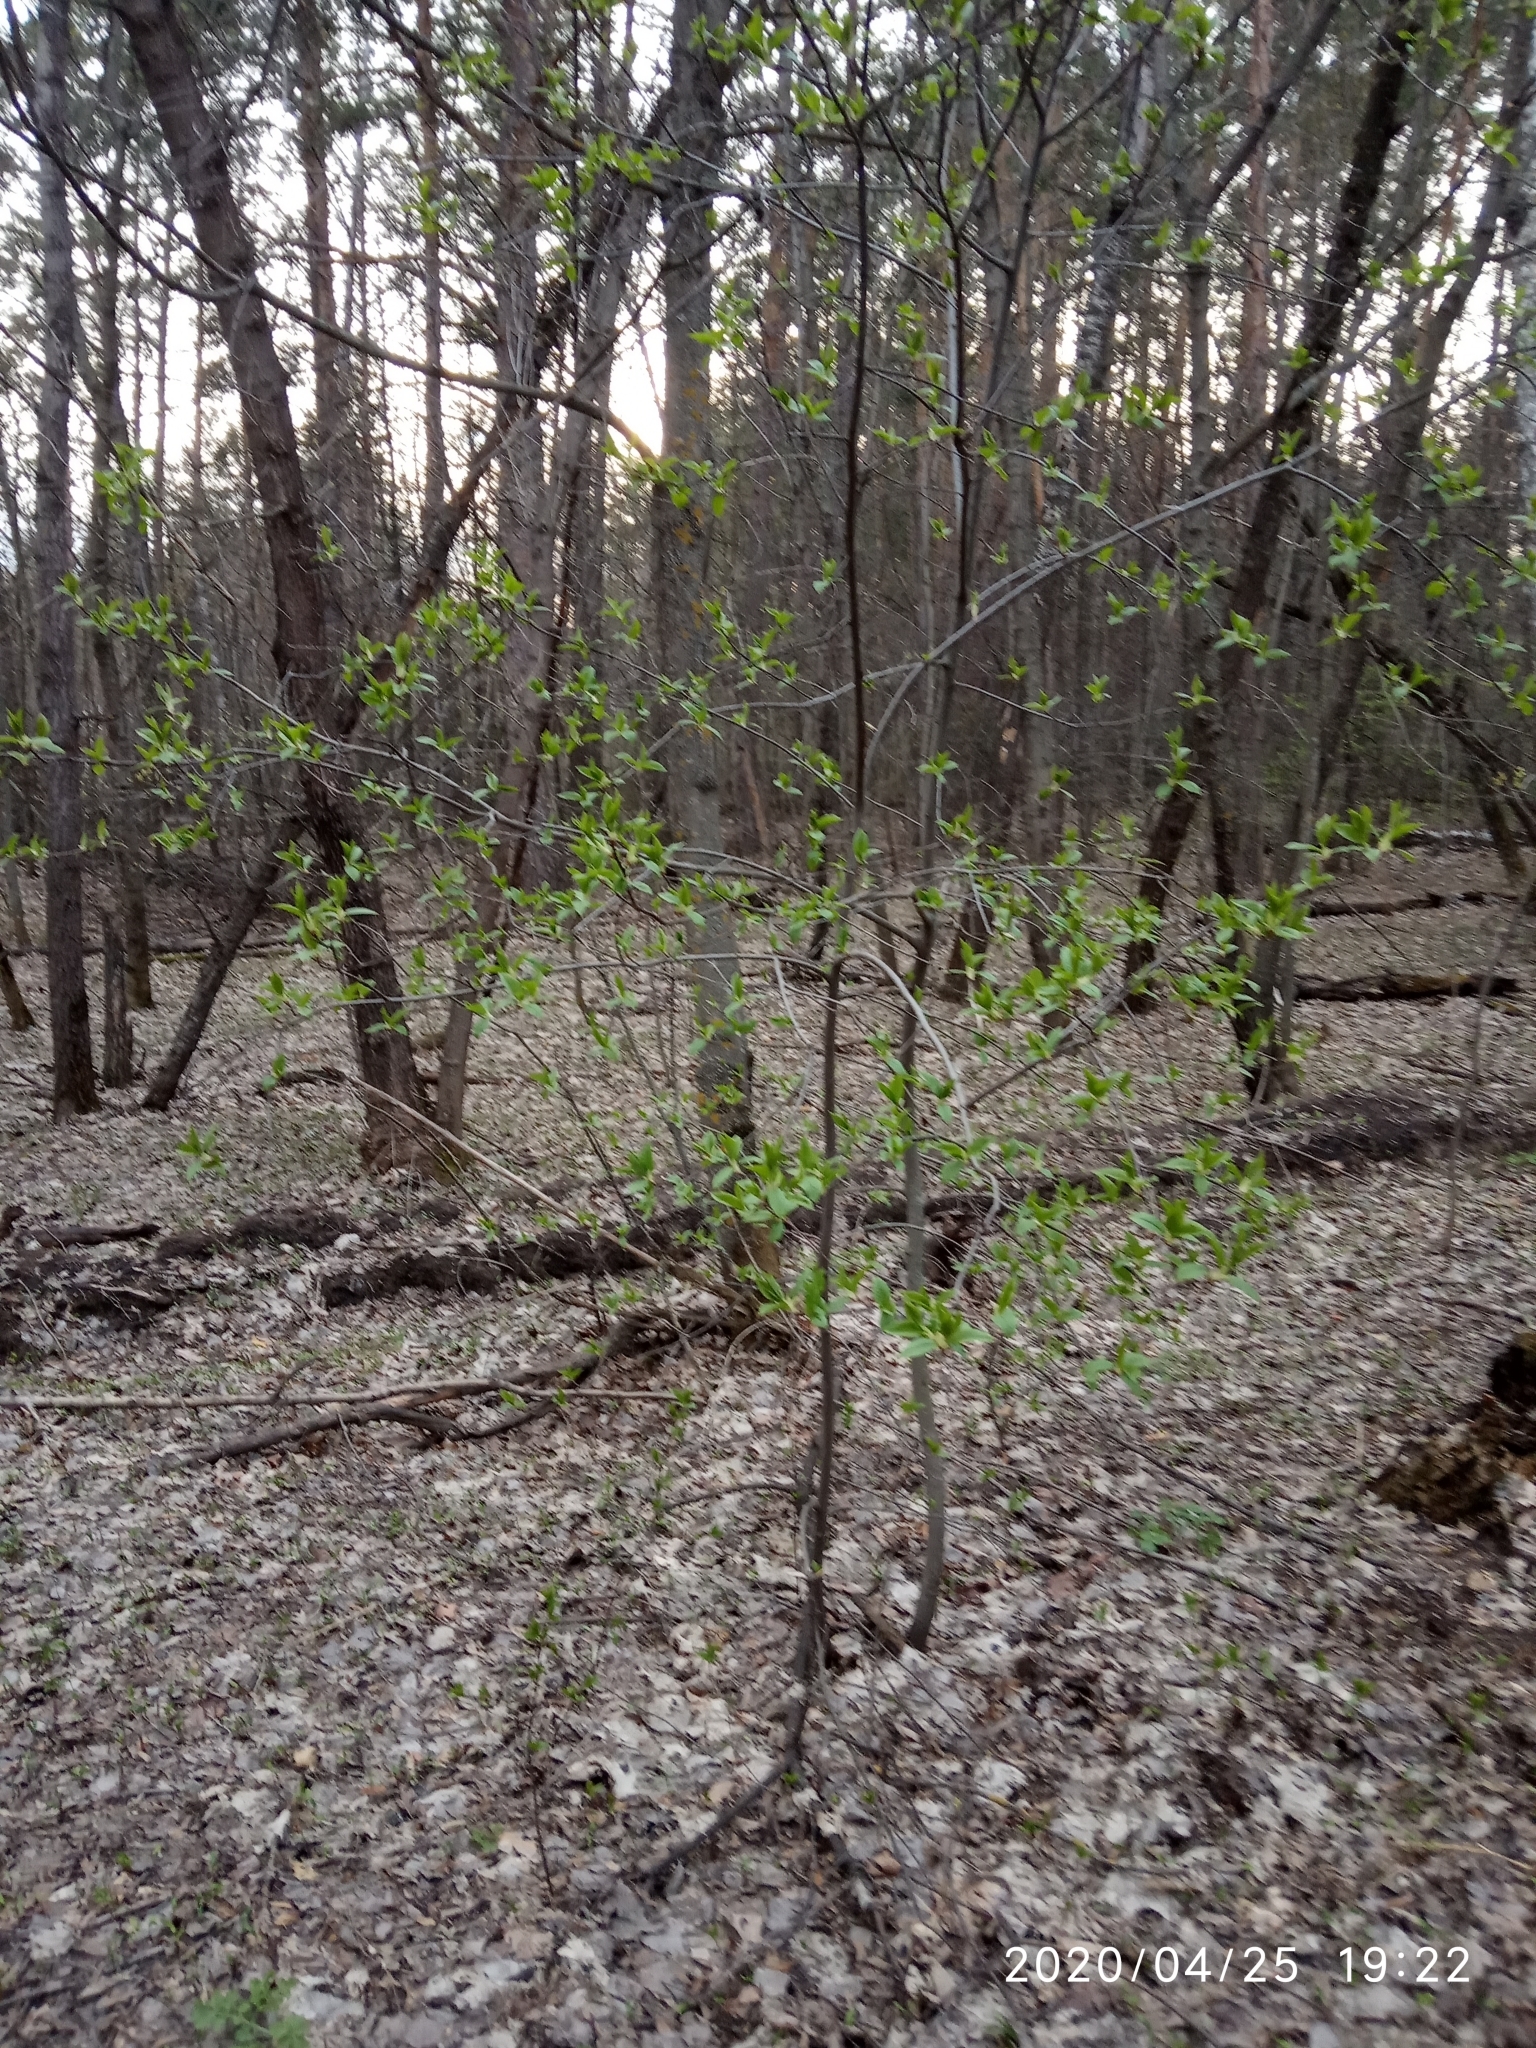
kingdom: Plantae
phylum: Tracheophyta
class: Magnoliopsida
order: Rosales
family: Rosaceae
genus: Prunus
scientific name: Prunus padus
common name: Bird cherry
